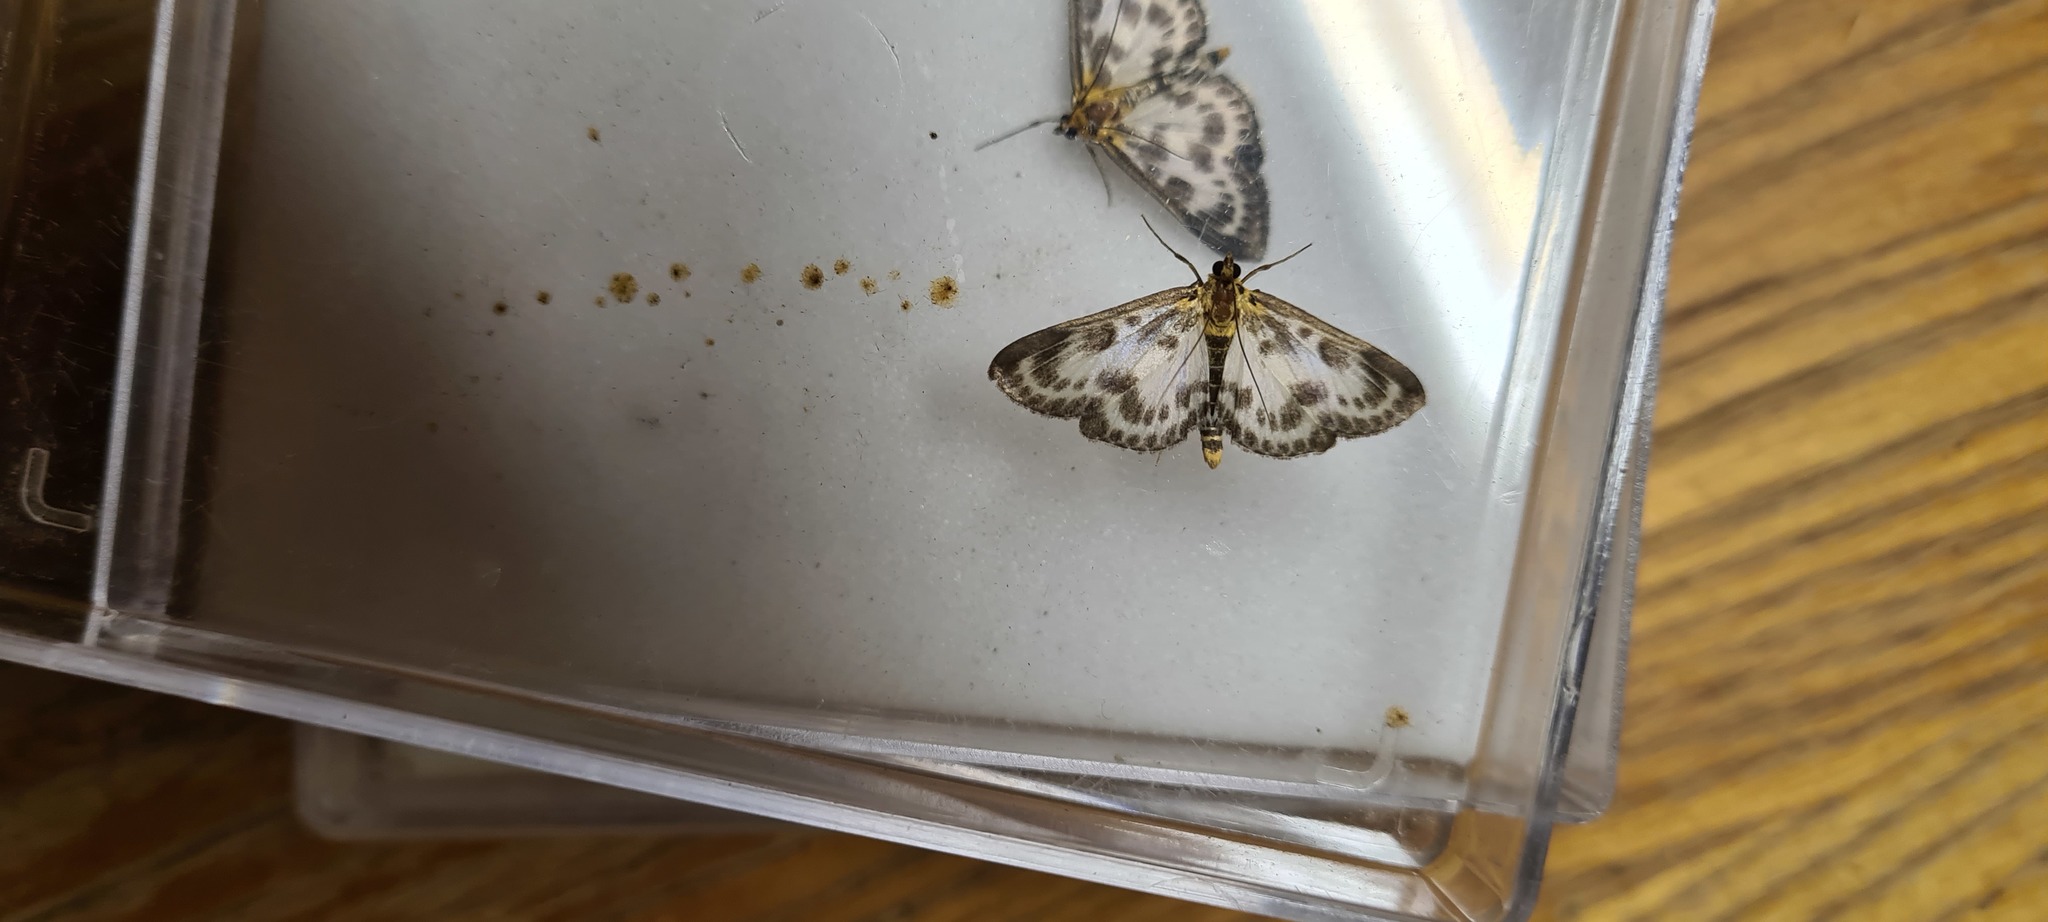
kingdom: Animalia
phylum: Arthropoda
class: Insecta
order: Lepidoptera
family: Crambidae
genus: Anania
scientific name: Anania hortulata
